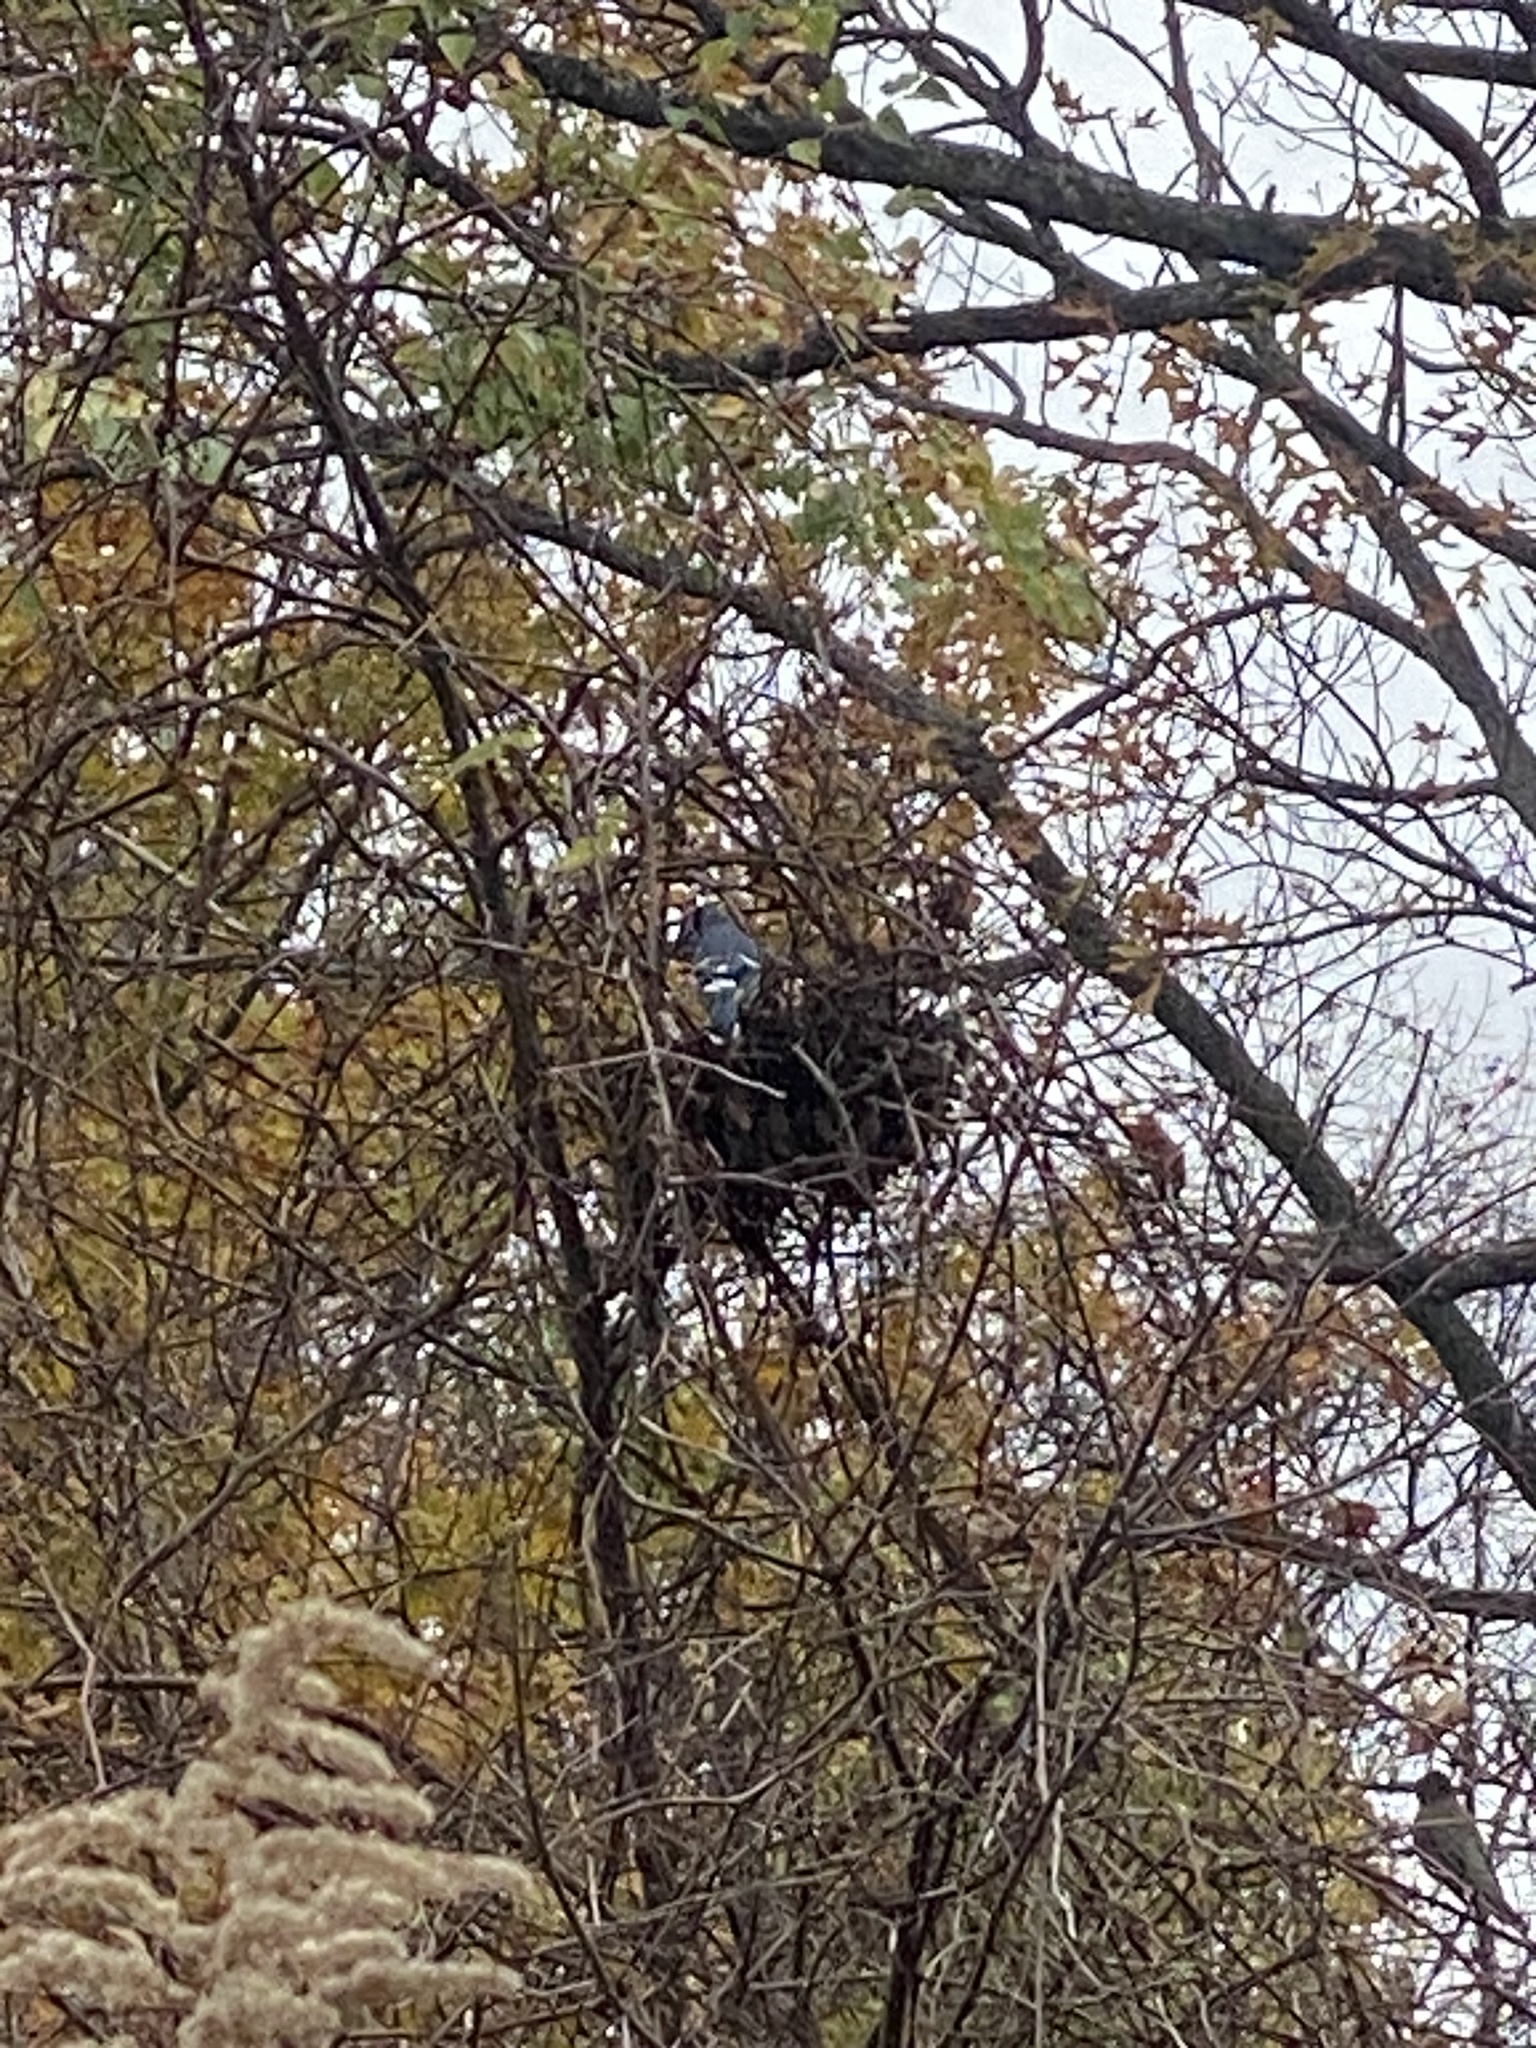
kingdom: Animalia
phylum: Chordata
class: Aves
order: Passeriformes
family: Corvidae
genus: Cyanocitta
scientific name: Cyanocitta cristata
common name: Blue jay
